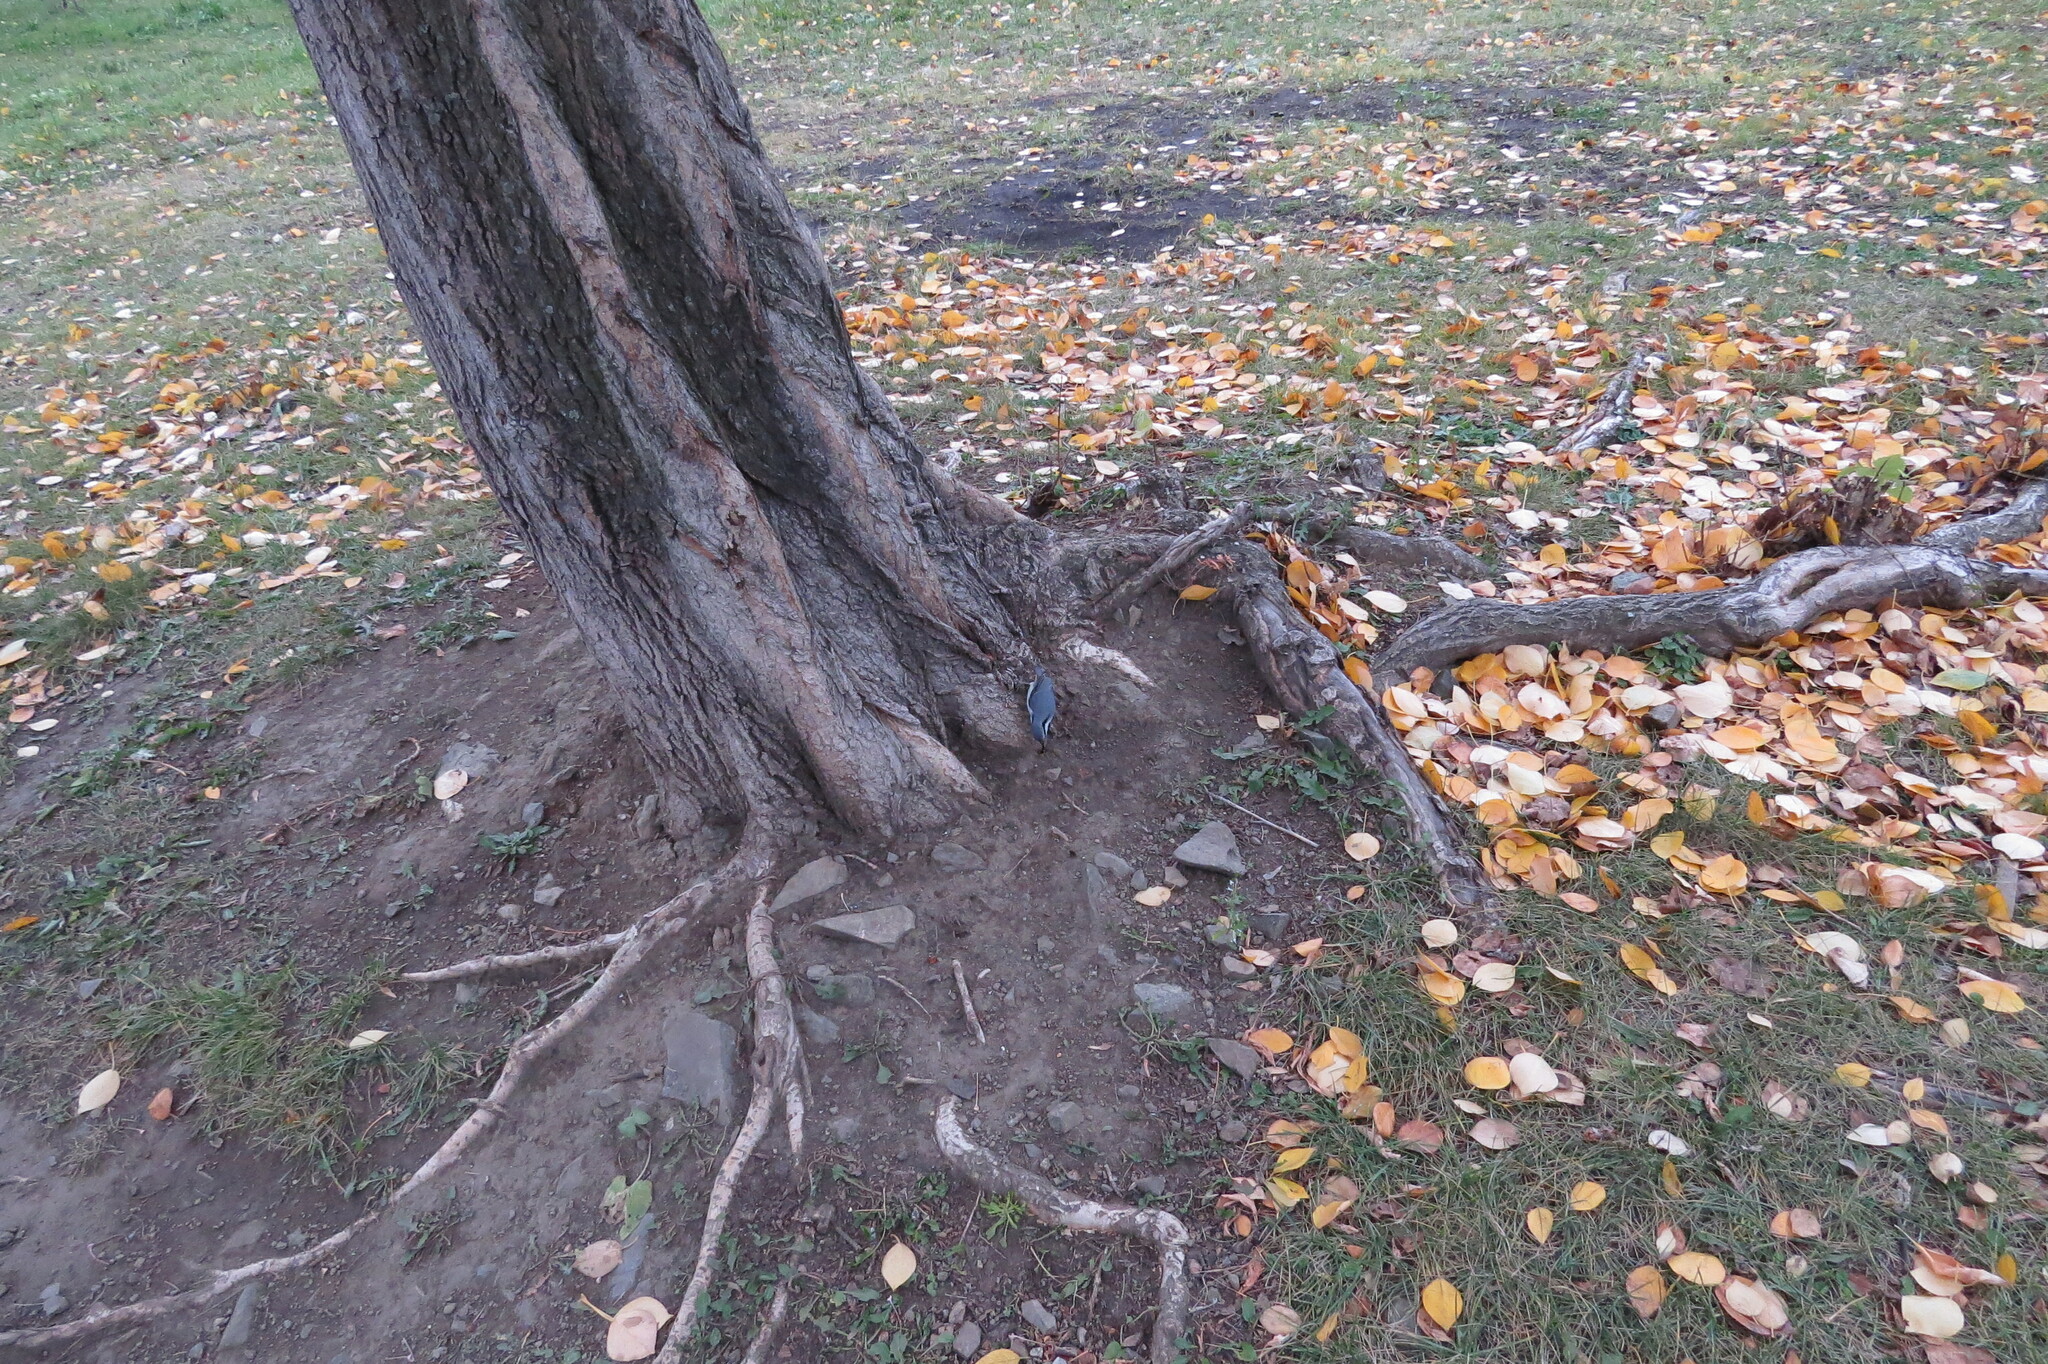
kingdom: Animalia
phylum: Chordata
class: Aves
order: Passeriformes
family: Sittidae
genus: Sitta
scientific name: Sitta europaea
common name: Eurasian nuthatch
